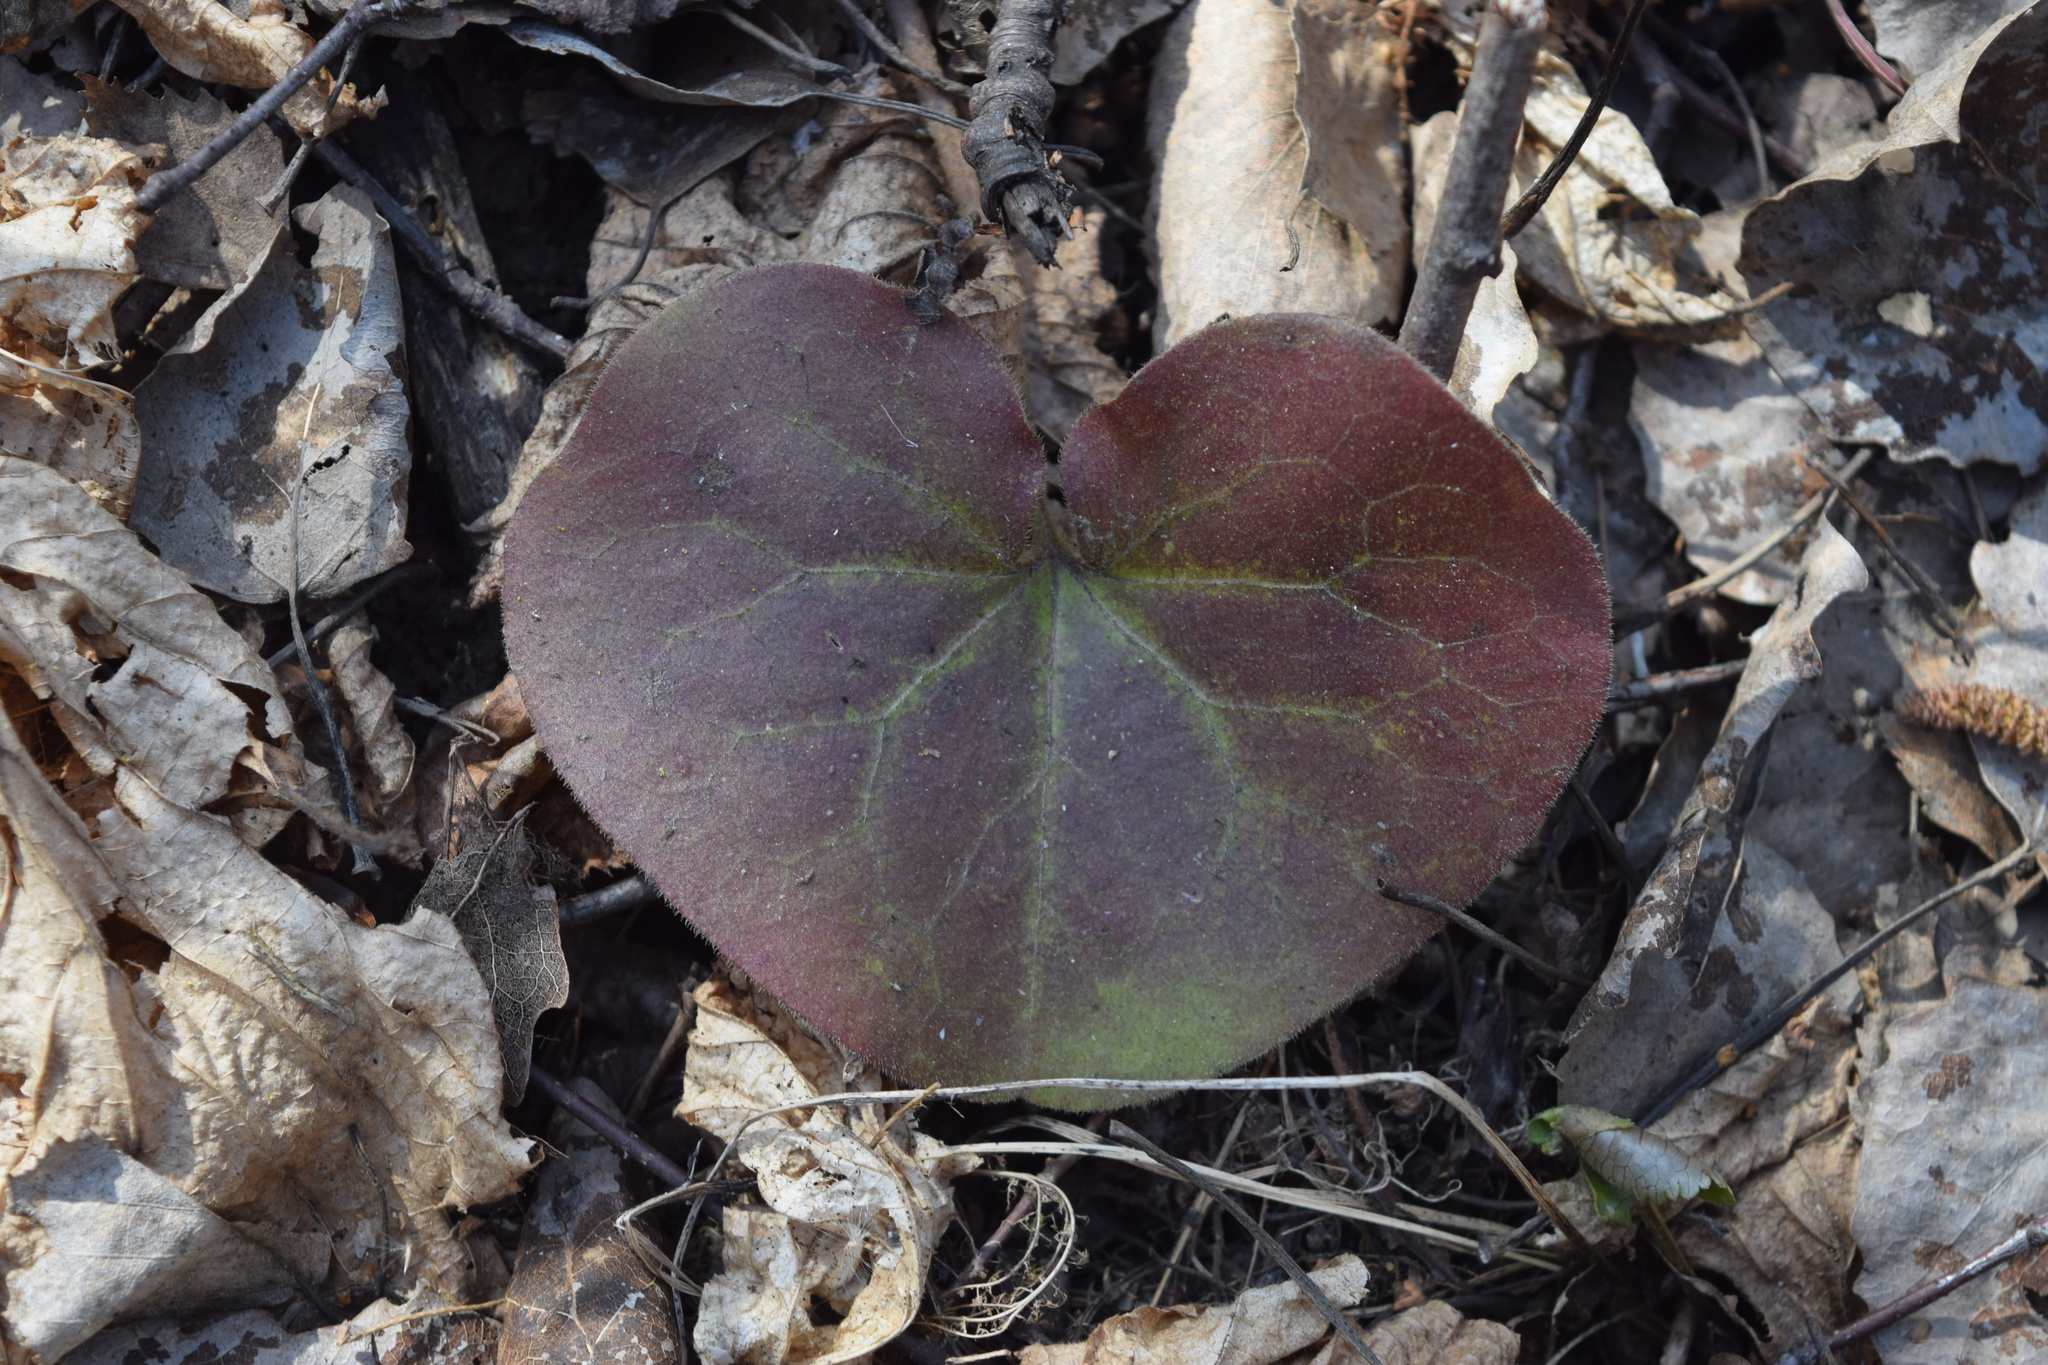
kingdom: Plantae
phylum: Tracheophyta
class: Magnoliopsida
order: Piperales
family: Aristolochiaceae
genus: Asarum
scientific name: Asarum europaeum
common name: Asarabacca
